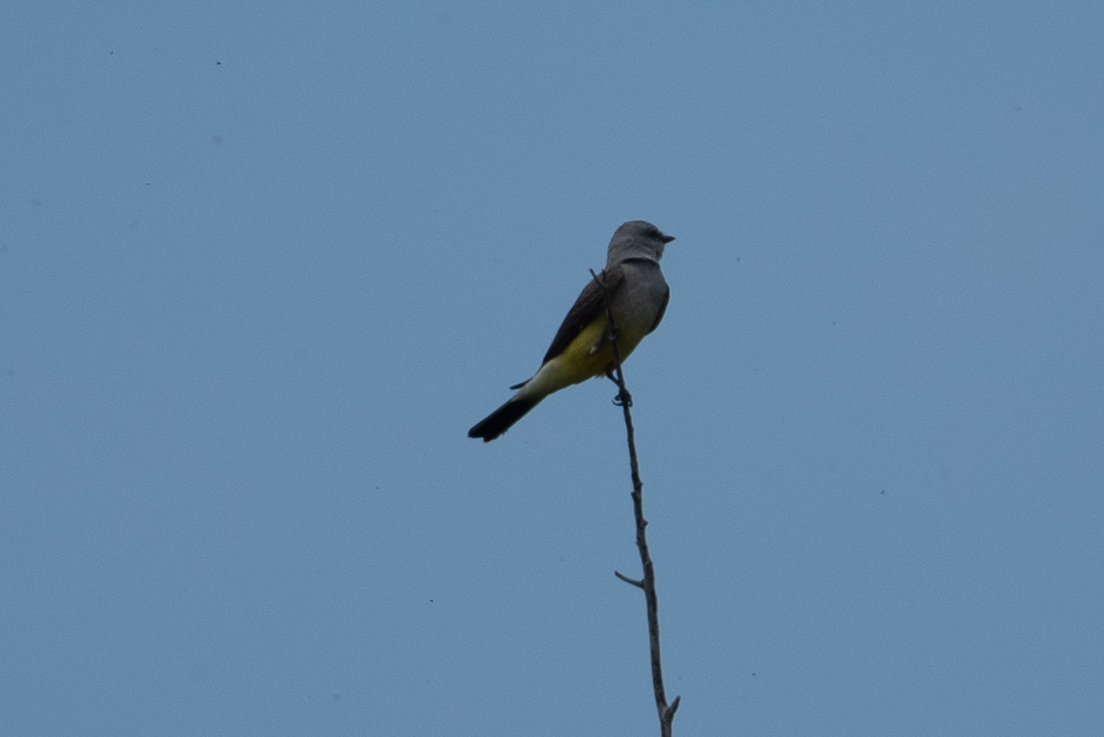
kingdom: Animalia
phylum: Chordata
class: Aves
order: Passeriformes
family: Tyrannidae
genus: Tyrannus
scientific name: Tyrannus verticalis
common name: Western kingbird
